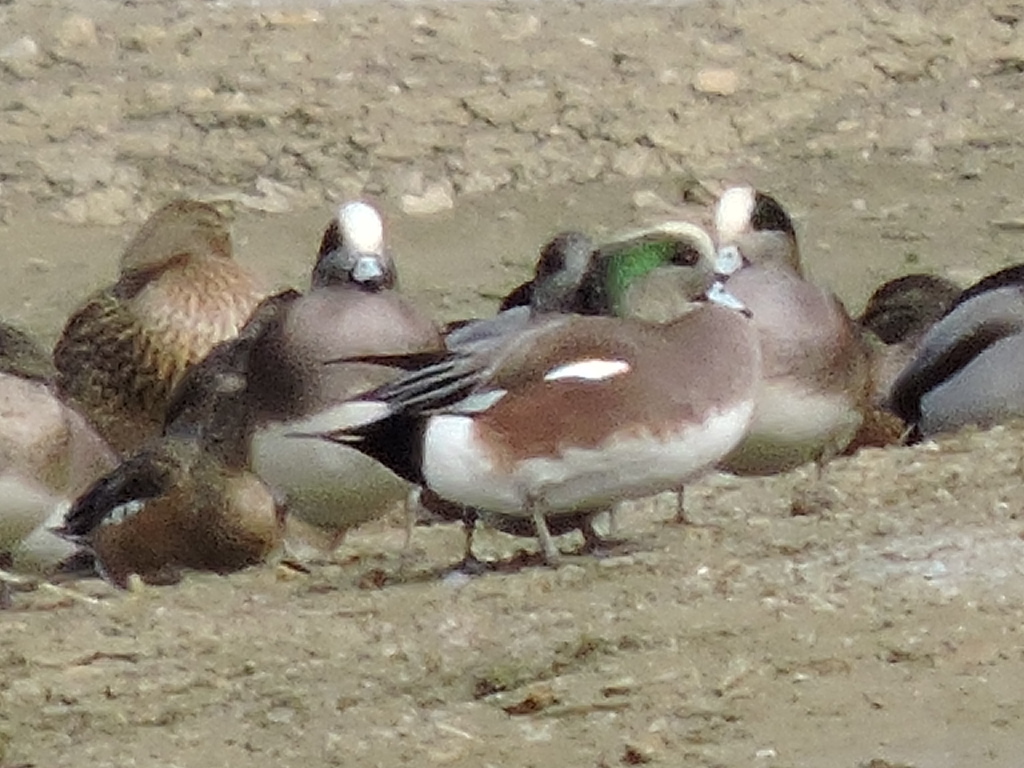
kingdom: Animalia
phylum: Chordata
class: Aves
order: Anseriformes
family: Anatidae
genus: Mareca
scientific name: Mareca americana
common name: American wigeon
